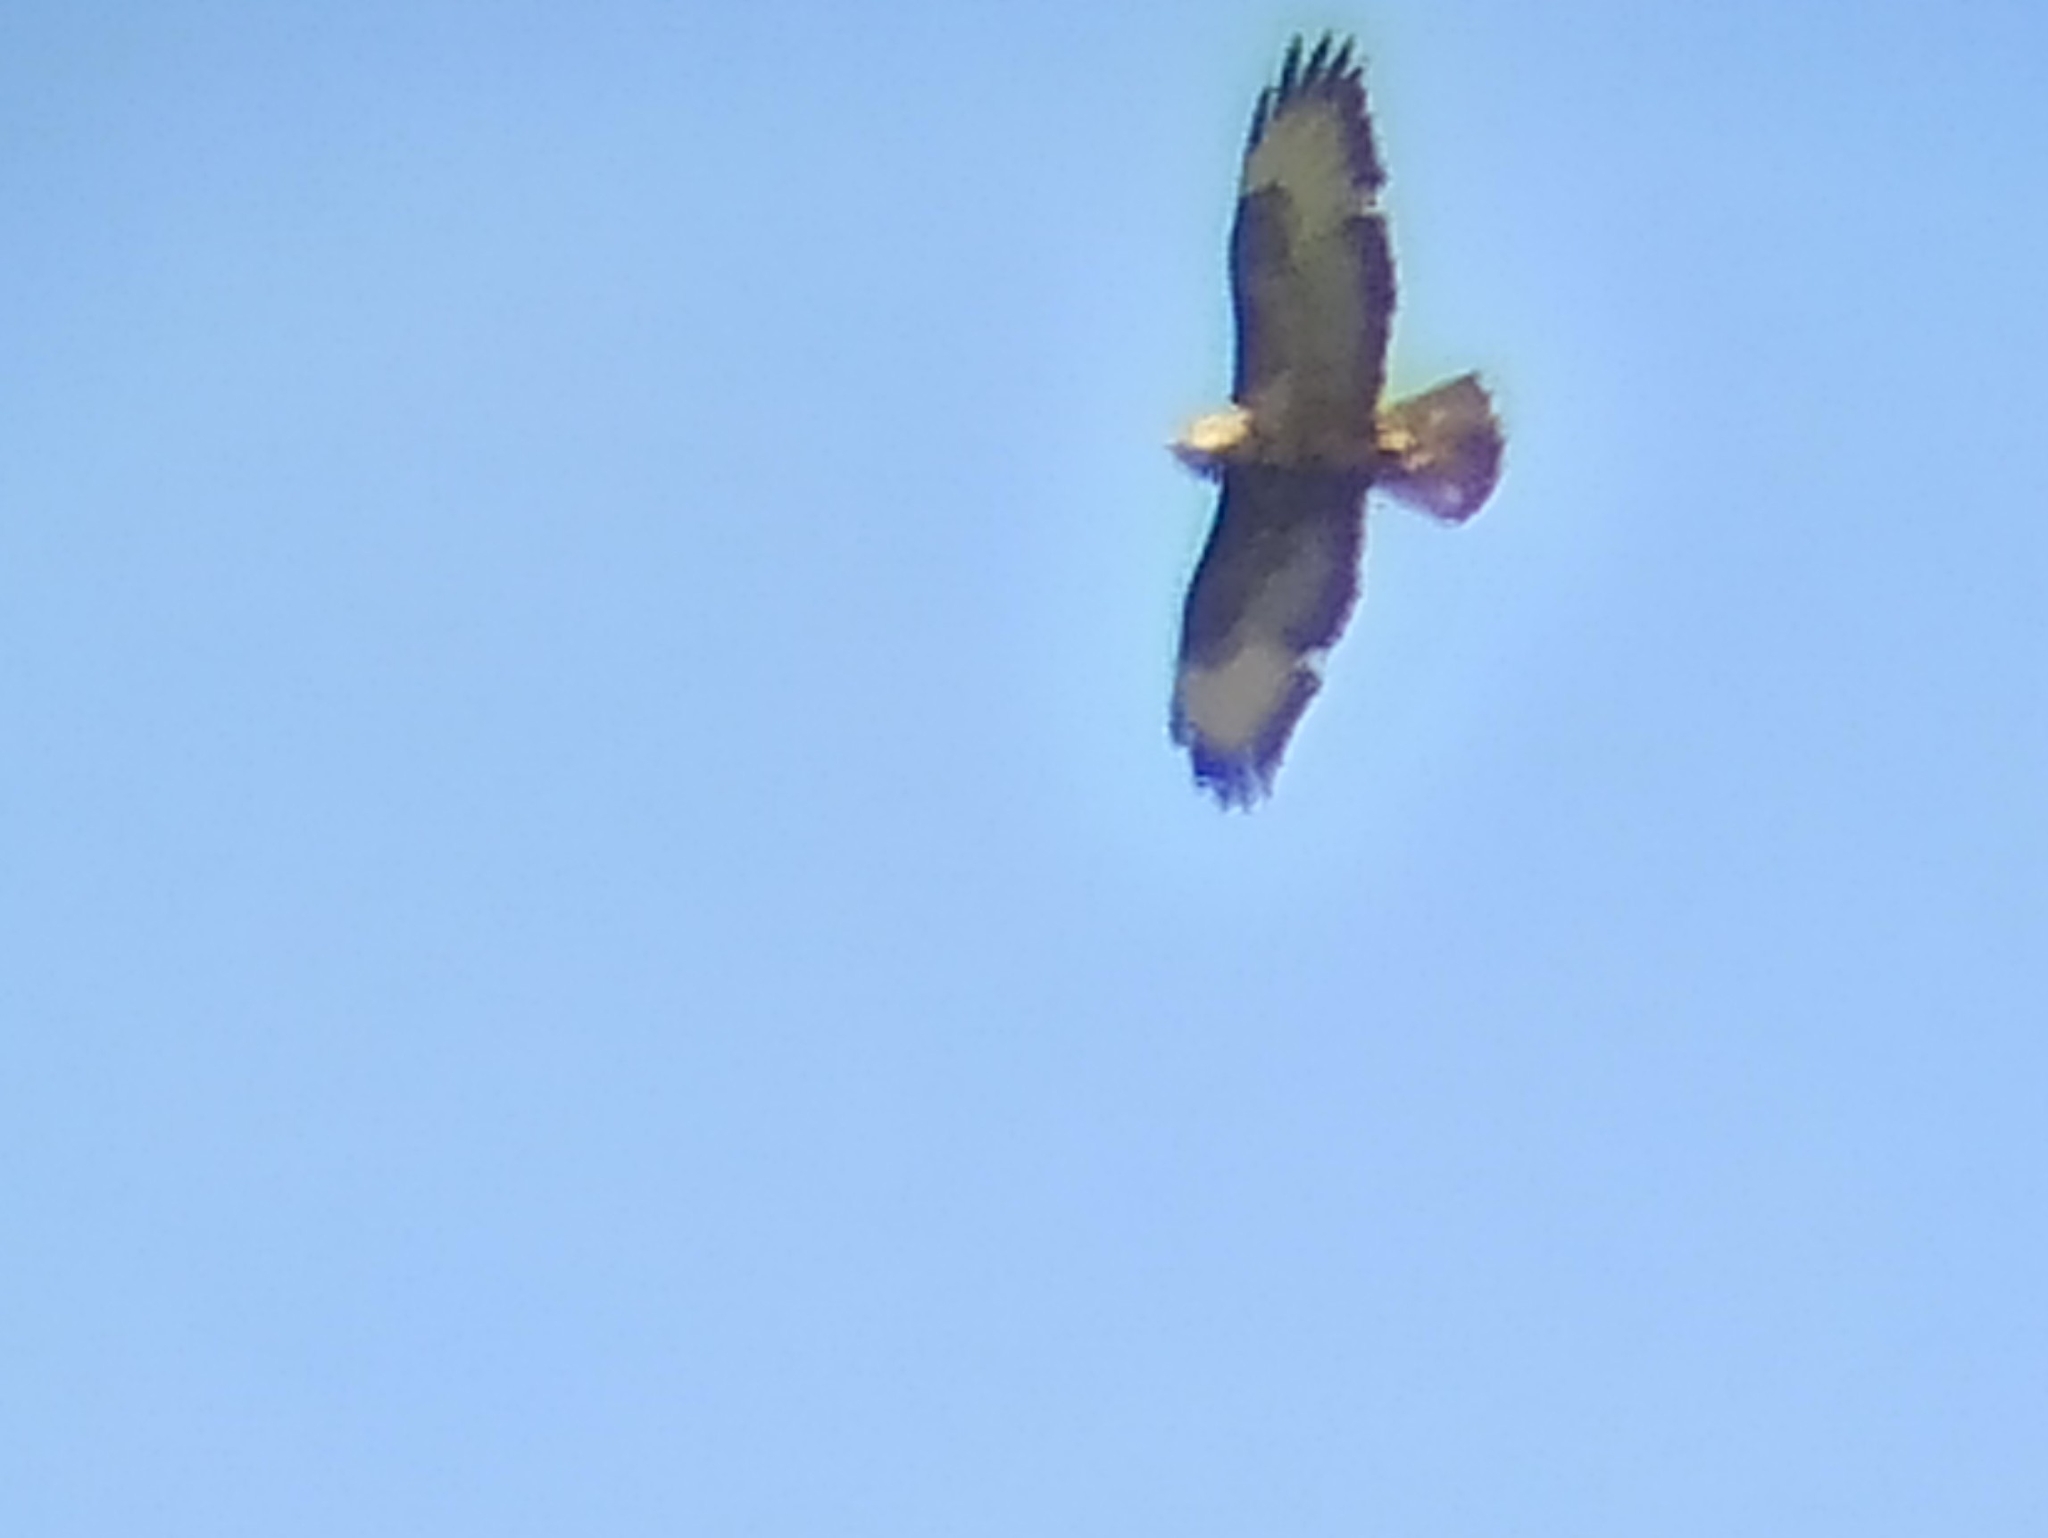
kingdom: Animalia
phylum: Chordata
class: Aves
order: Accipitriformes
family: Accipitridae
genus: Buteo
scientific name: Buteo buteo
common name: Common buzzard
